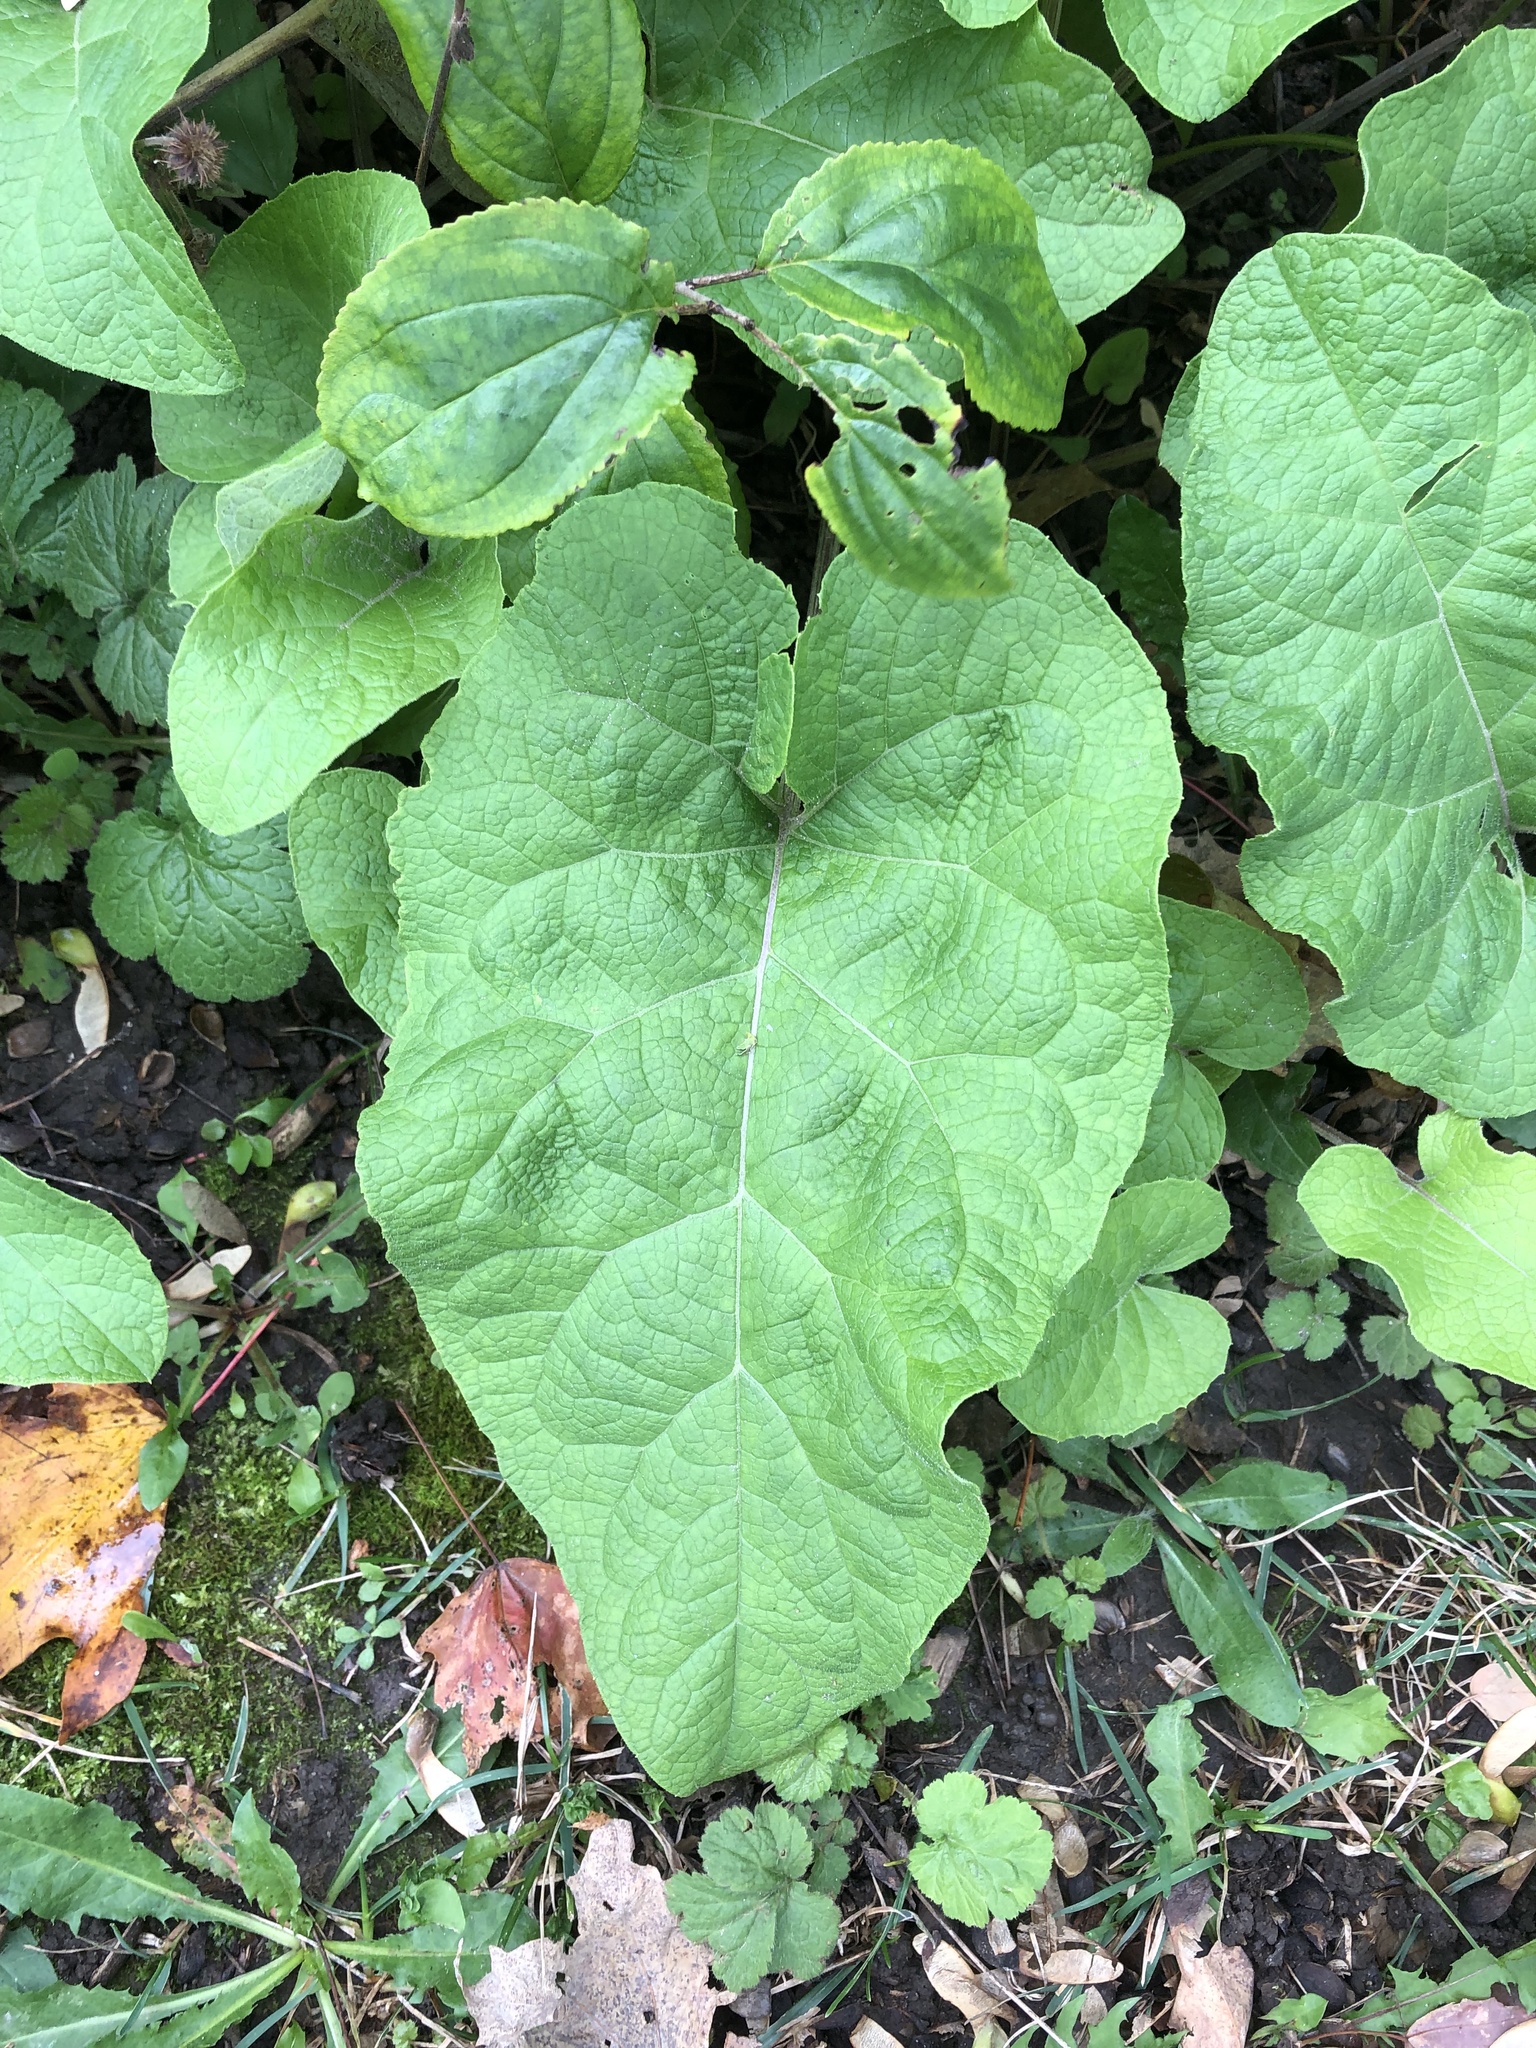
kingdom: Plantae
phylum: Tracheophyta
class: Magnoliopsida
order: Asterales
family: Asteraceae
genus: Arctium
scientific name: Arctium
